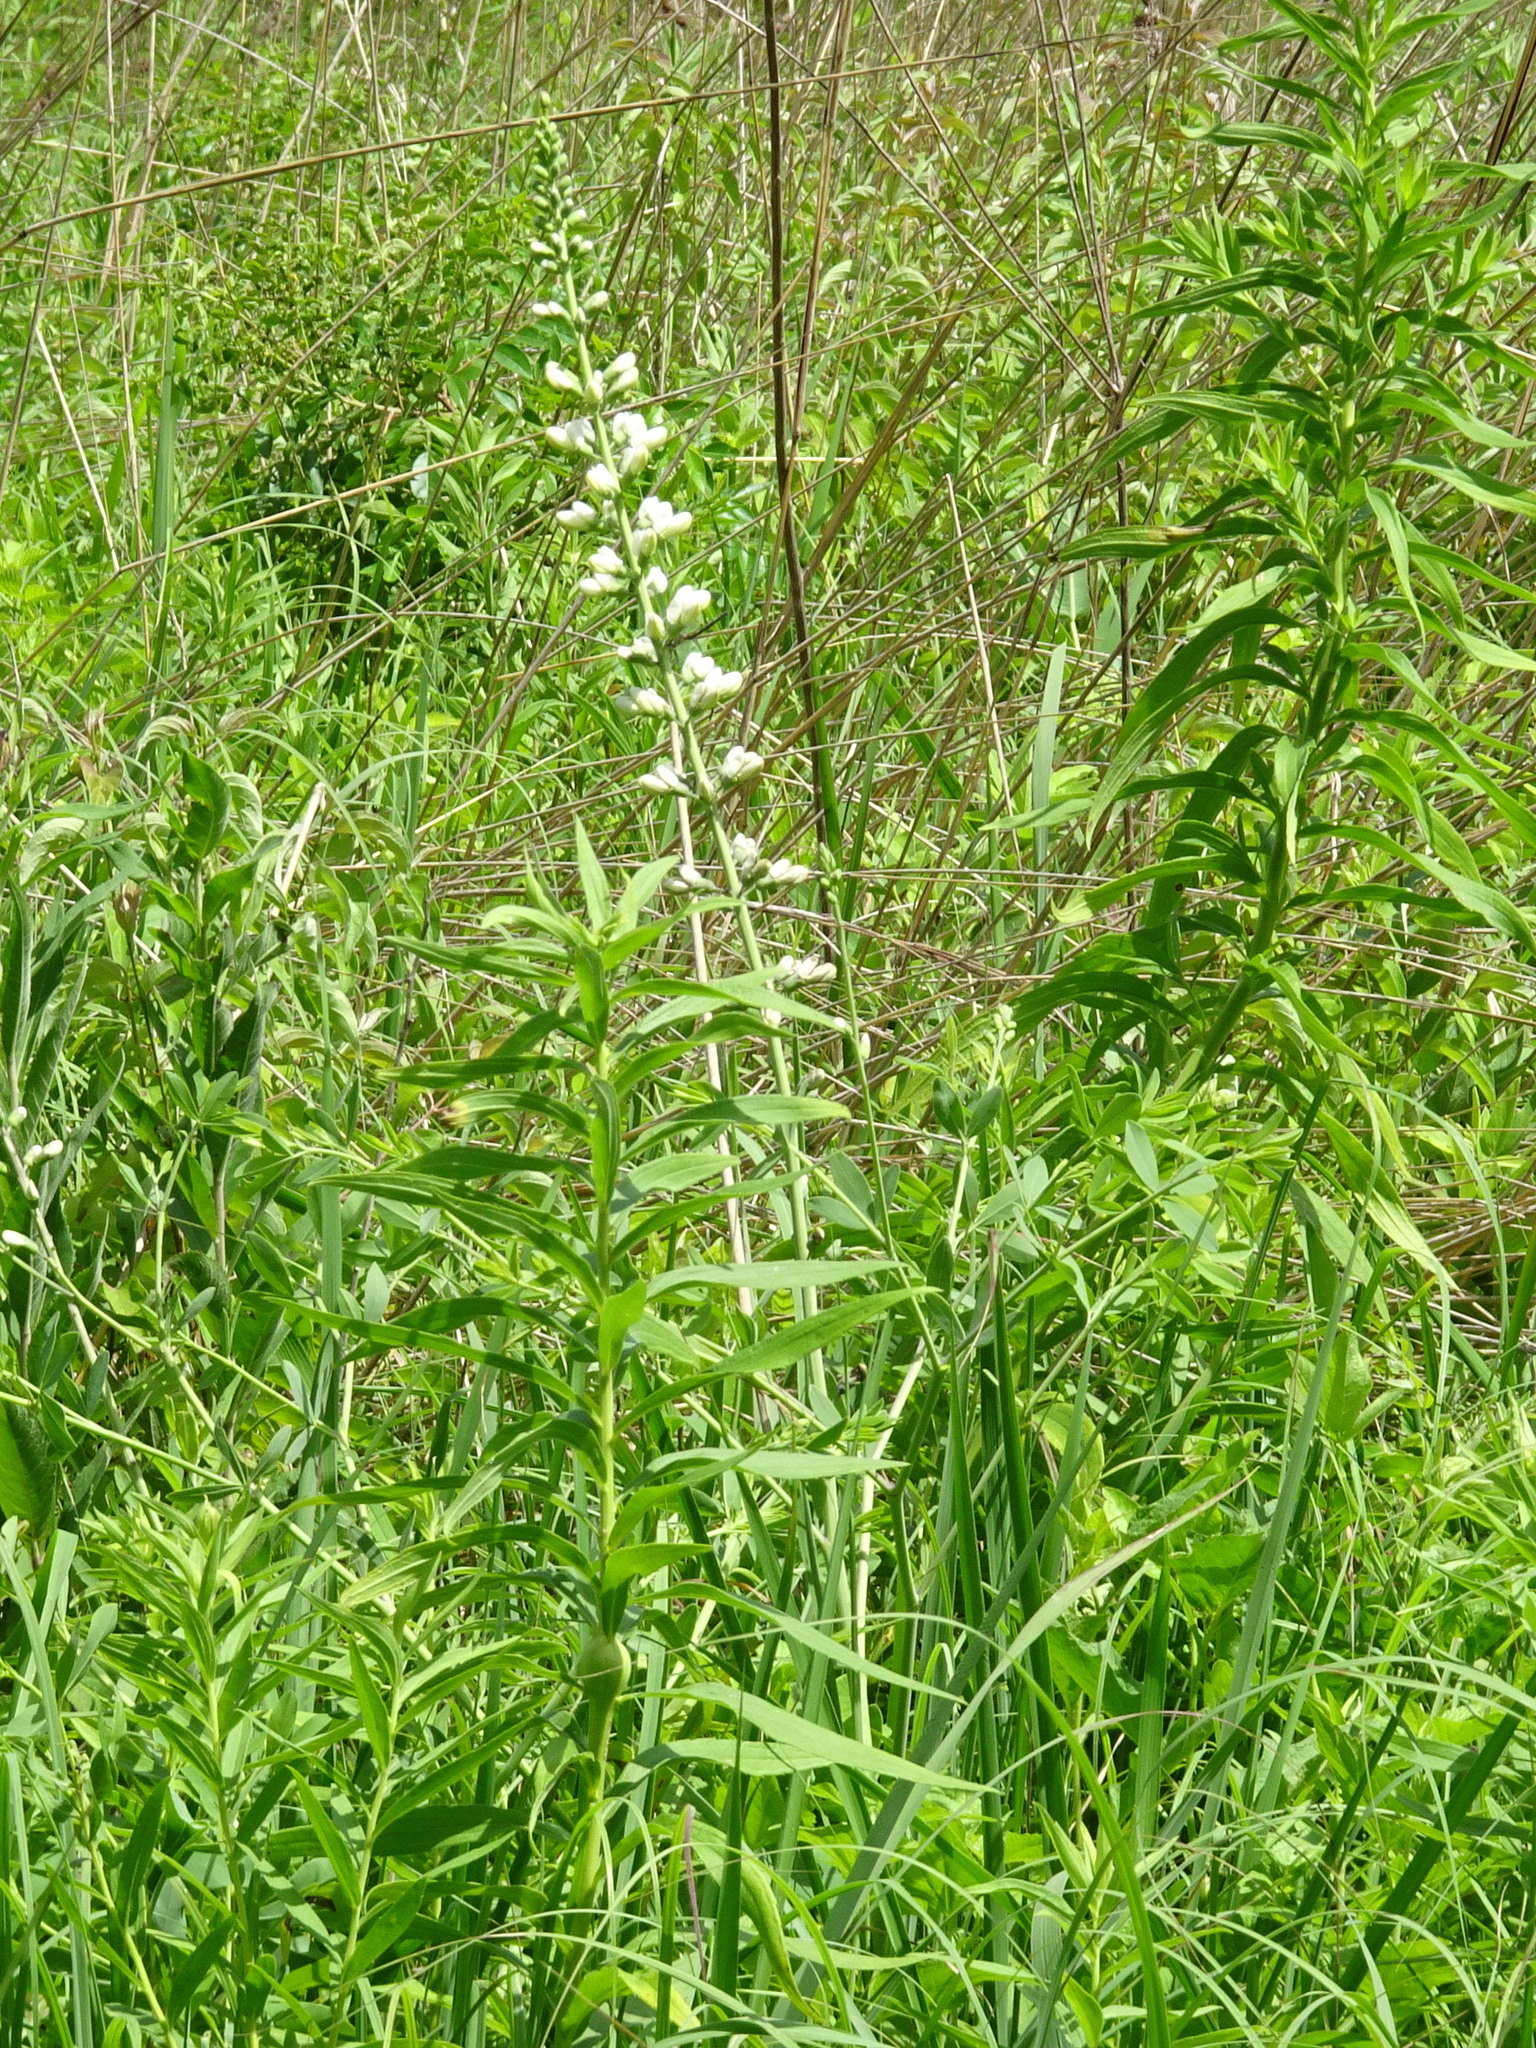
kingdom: Plantae
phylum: Tracheophyta
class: Magnoliopsida
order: Fabales
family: Fabaceae
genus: Baptisia
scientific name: Baptisia alba
